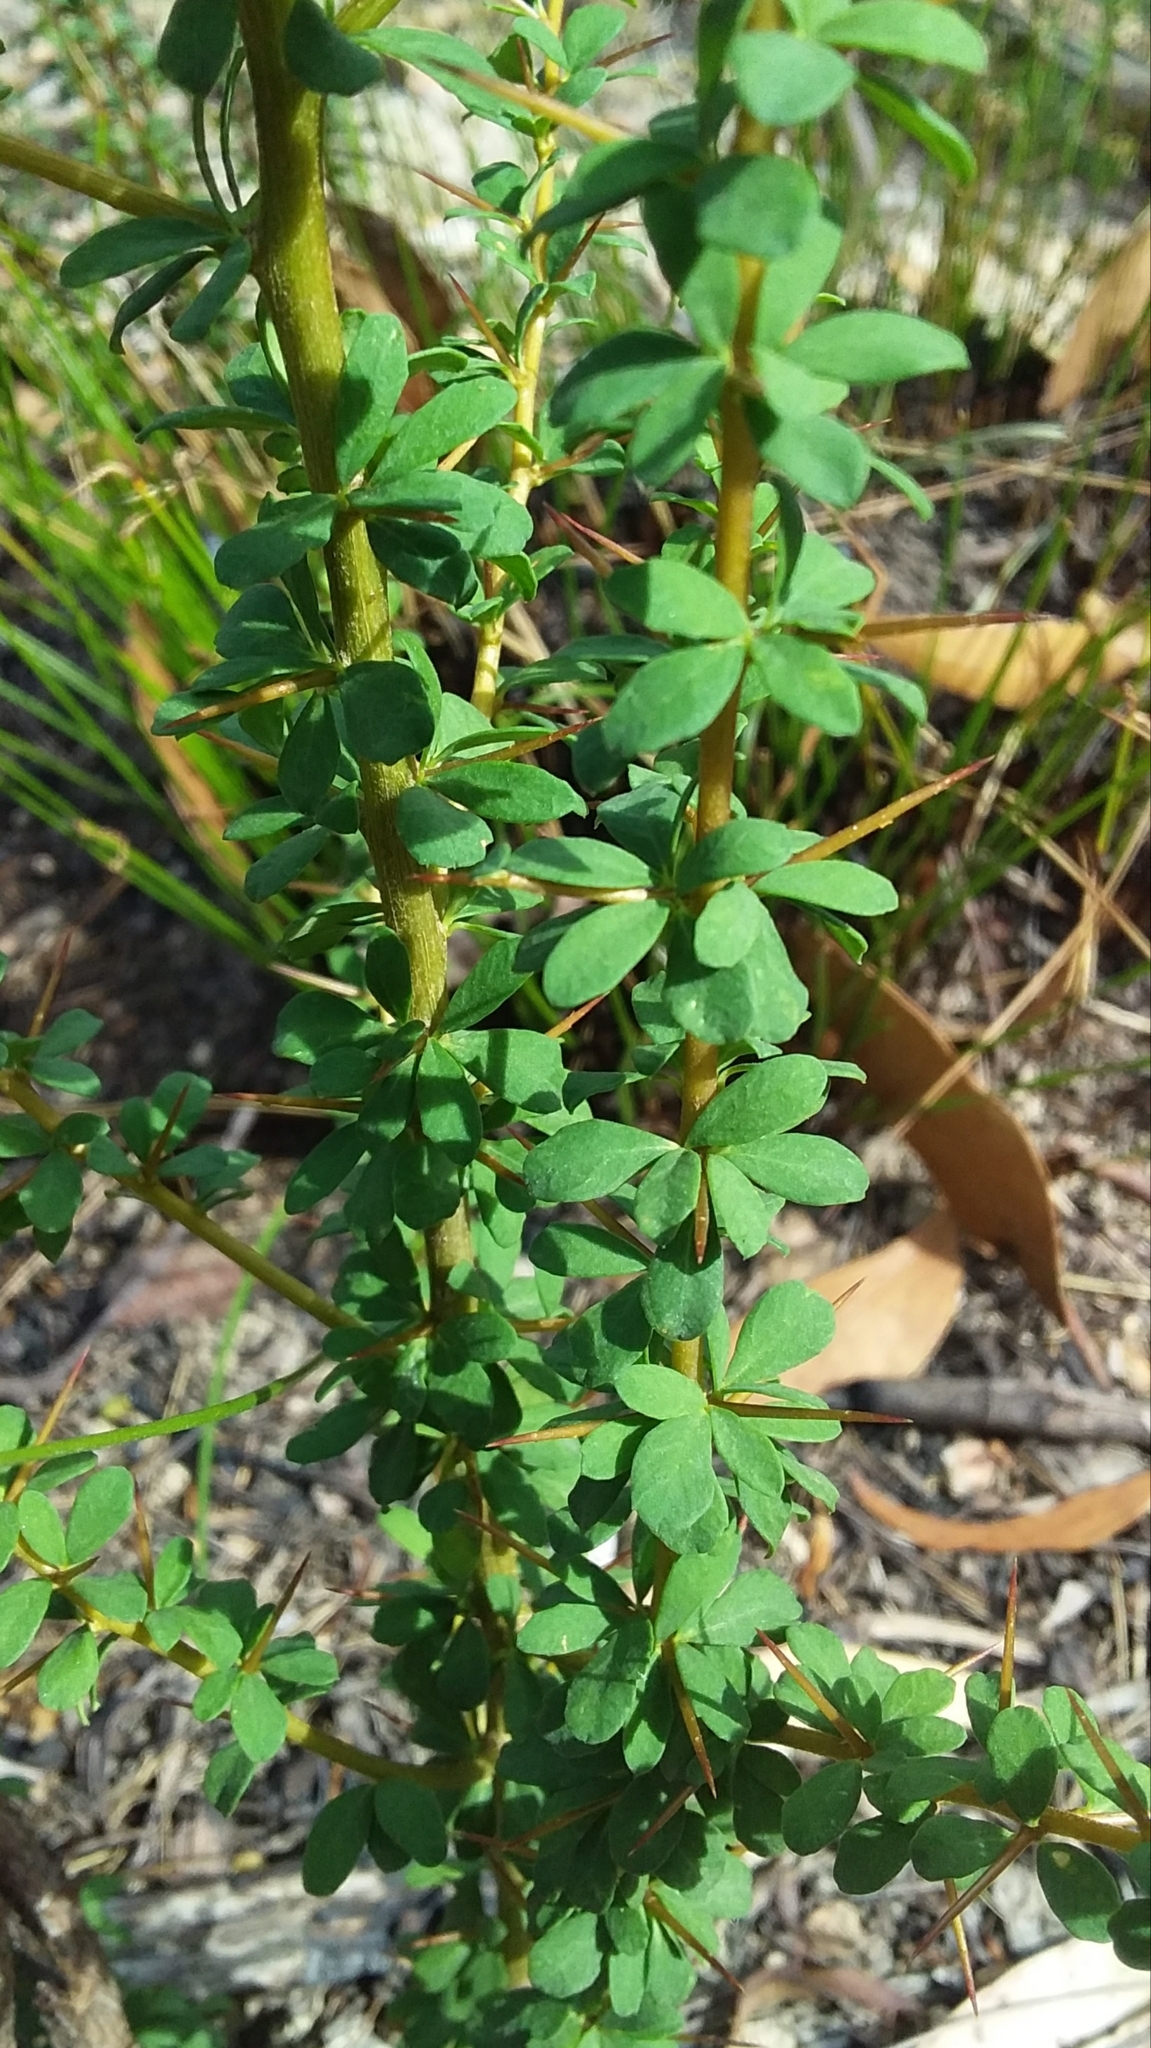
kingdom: Plantae
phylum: Tracheophyta
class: Magnoliopsida
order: Apiales
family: Pittosporaceae
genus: Bursaria
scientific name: Bursaria spinosa
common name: Australian blackthorn
